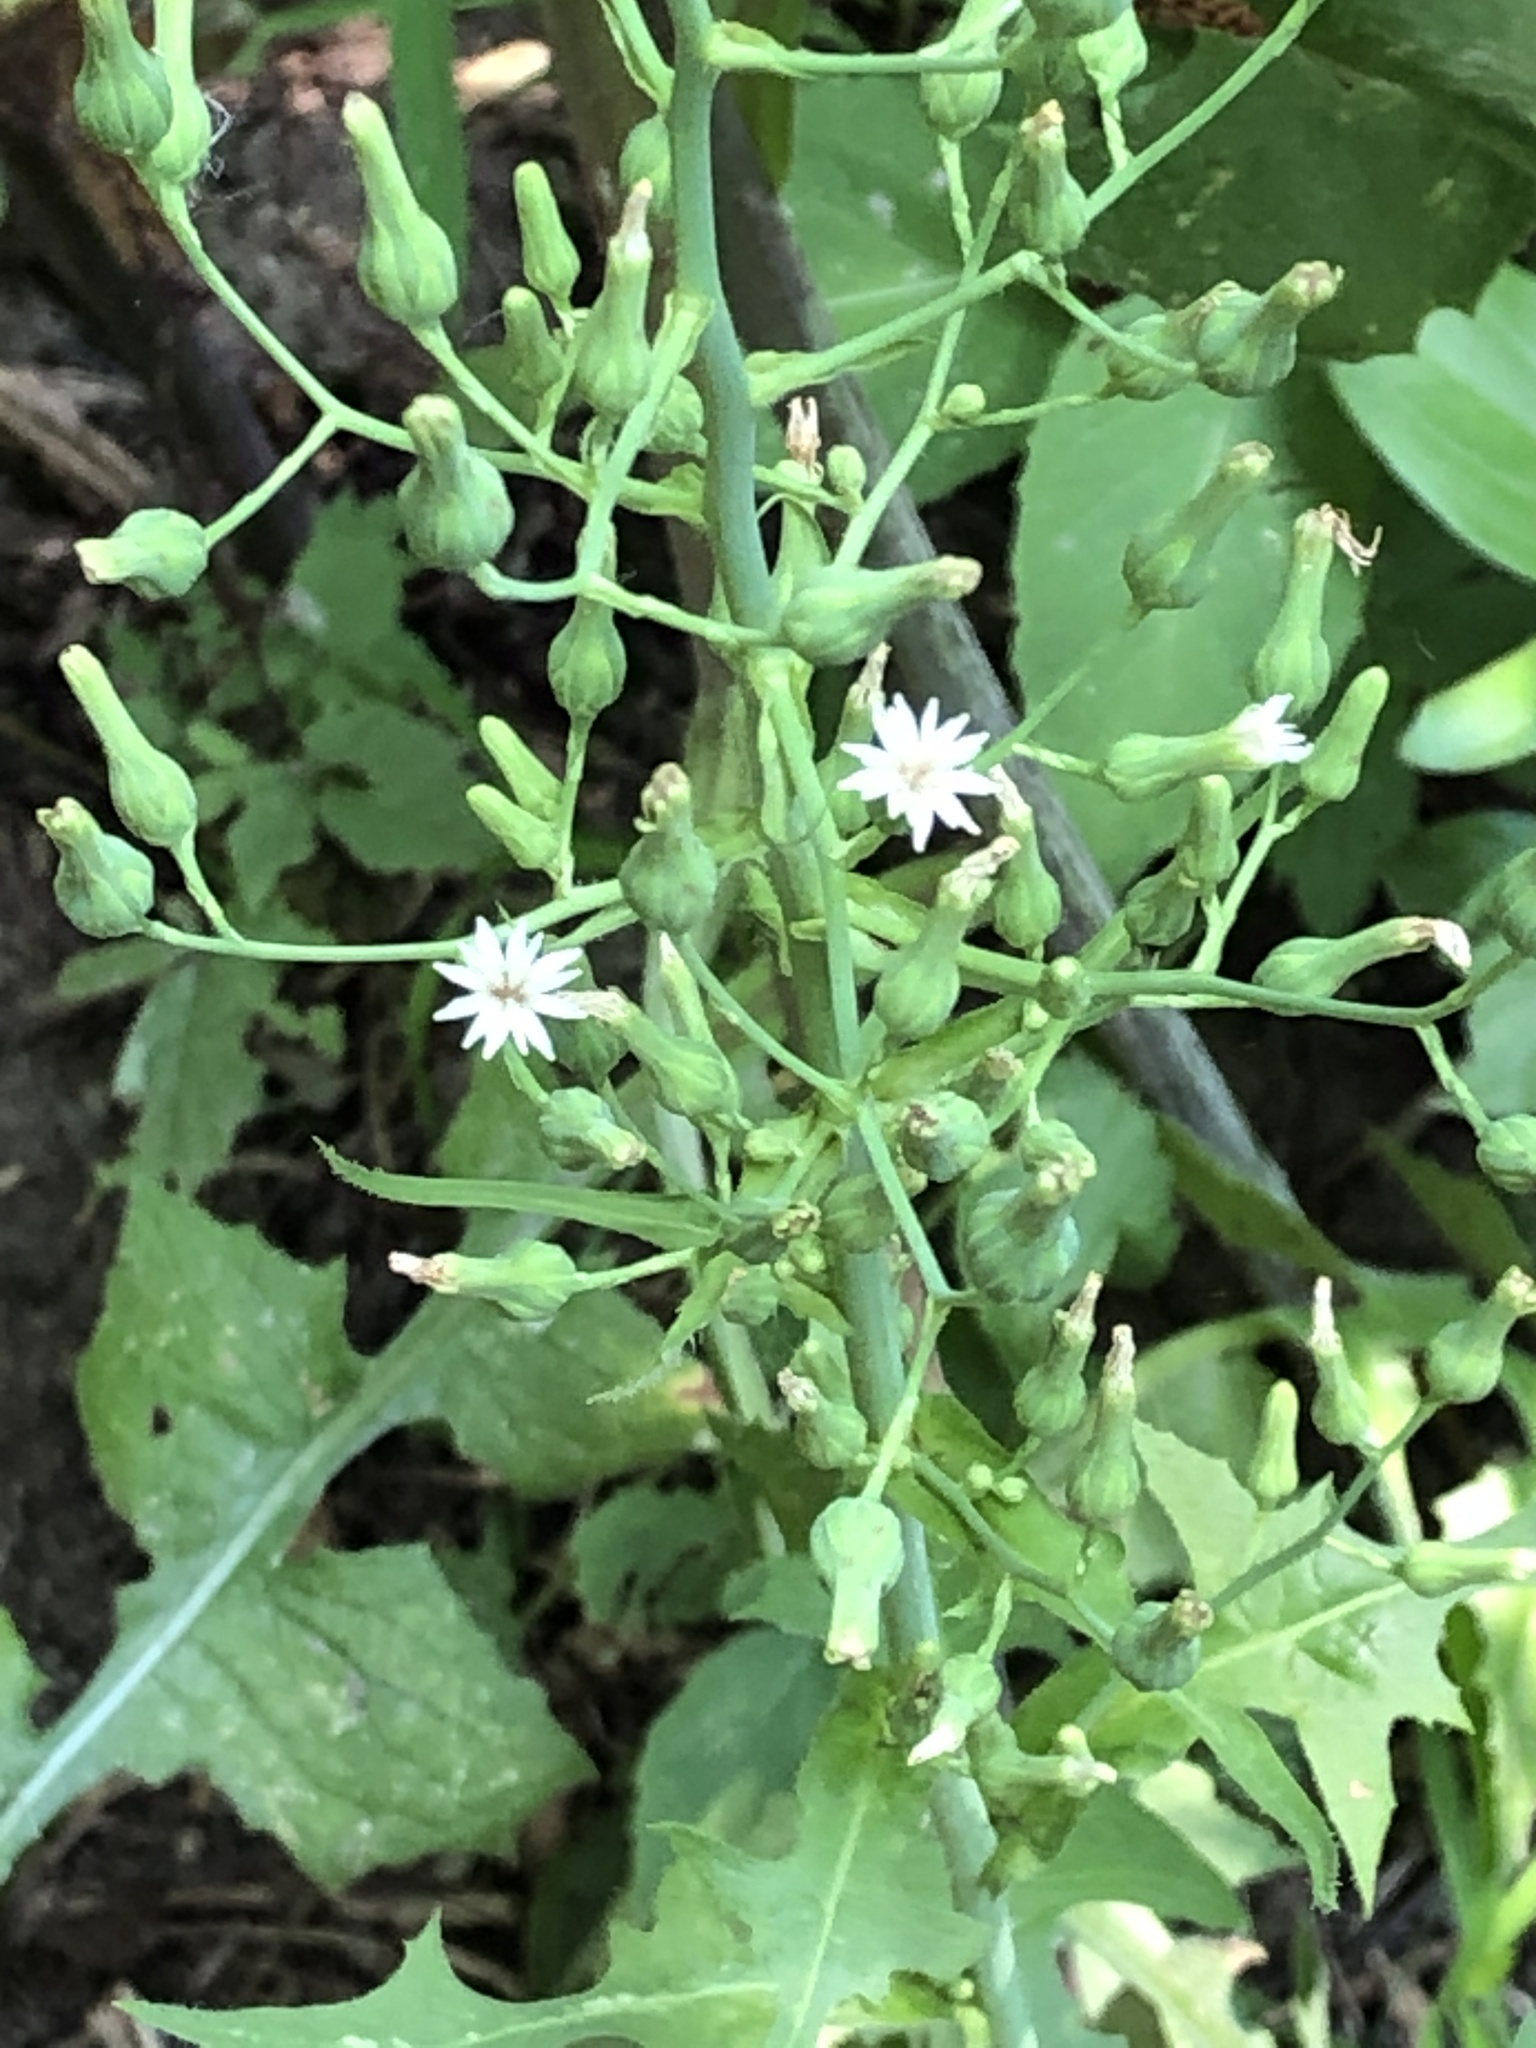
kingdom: Plantae
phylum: Tracheophyta
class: Magnoliopsida
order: Asterales
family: Asteraceae
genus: Lactuca
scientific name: Lactuca biennis
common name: Blue wood lettuce
